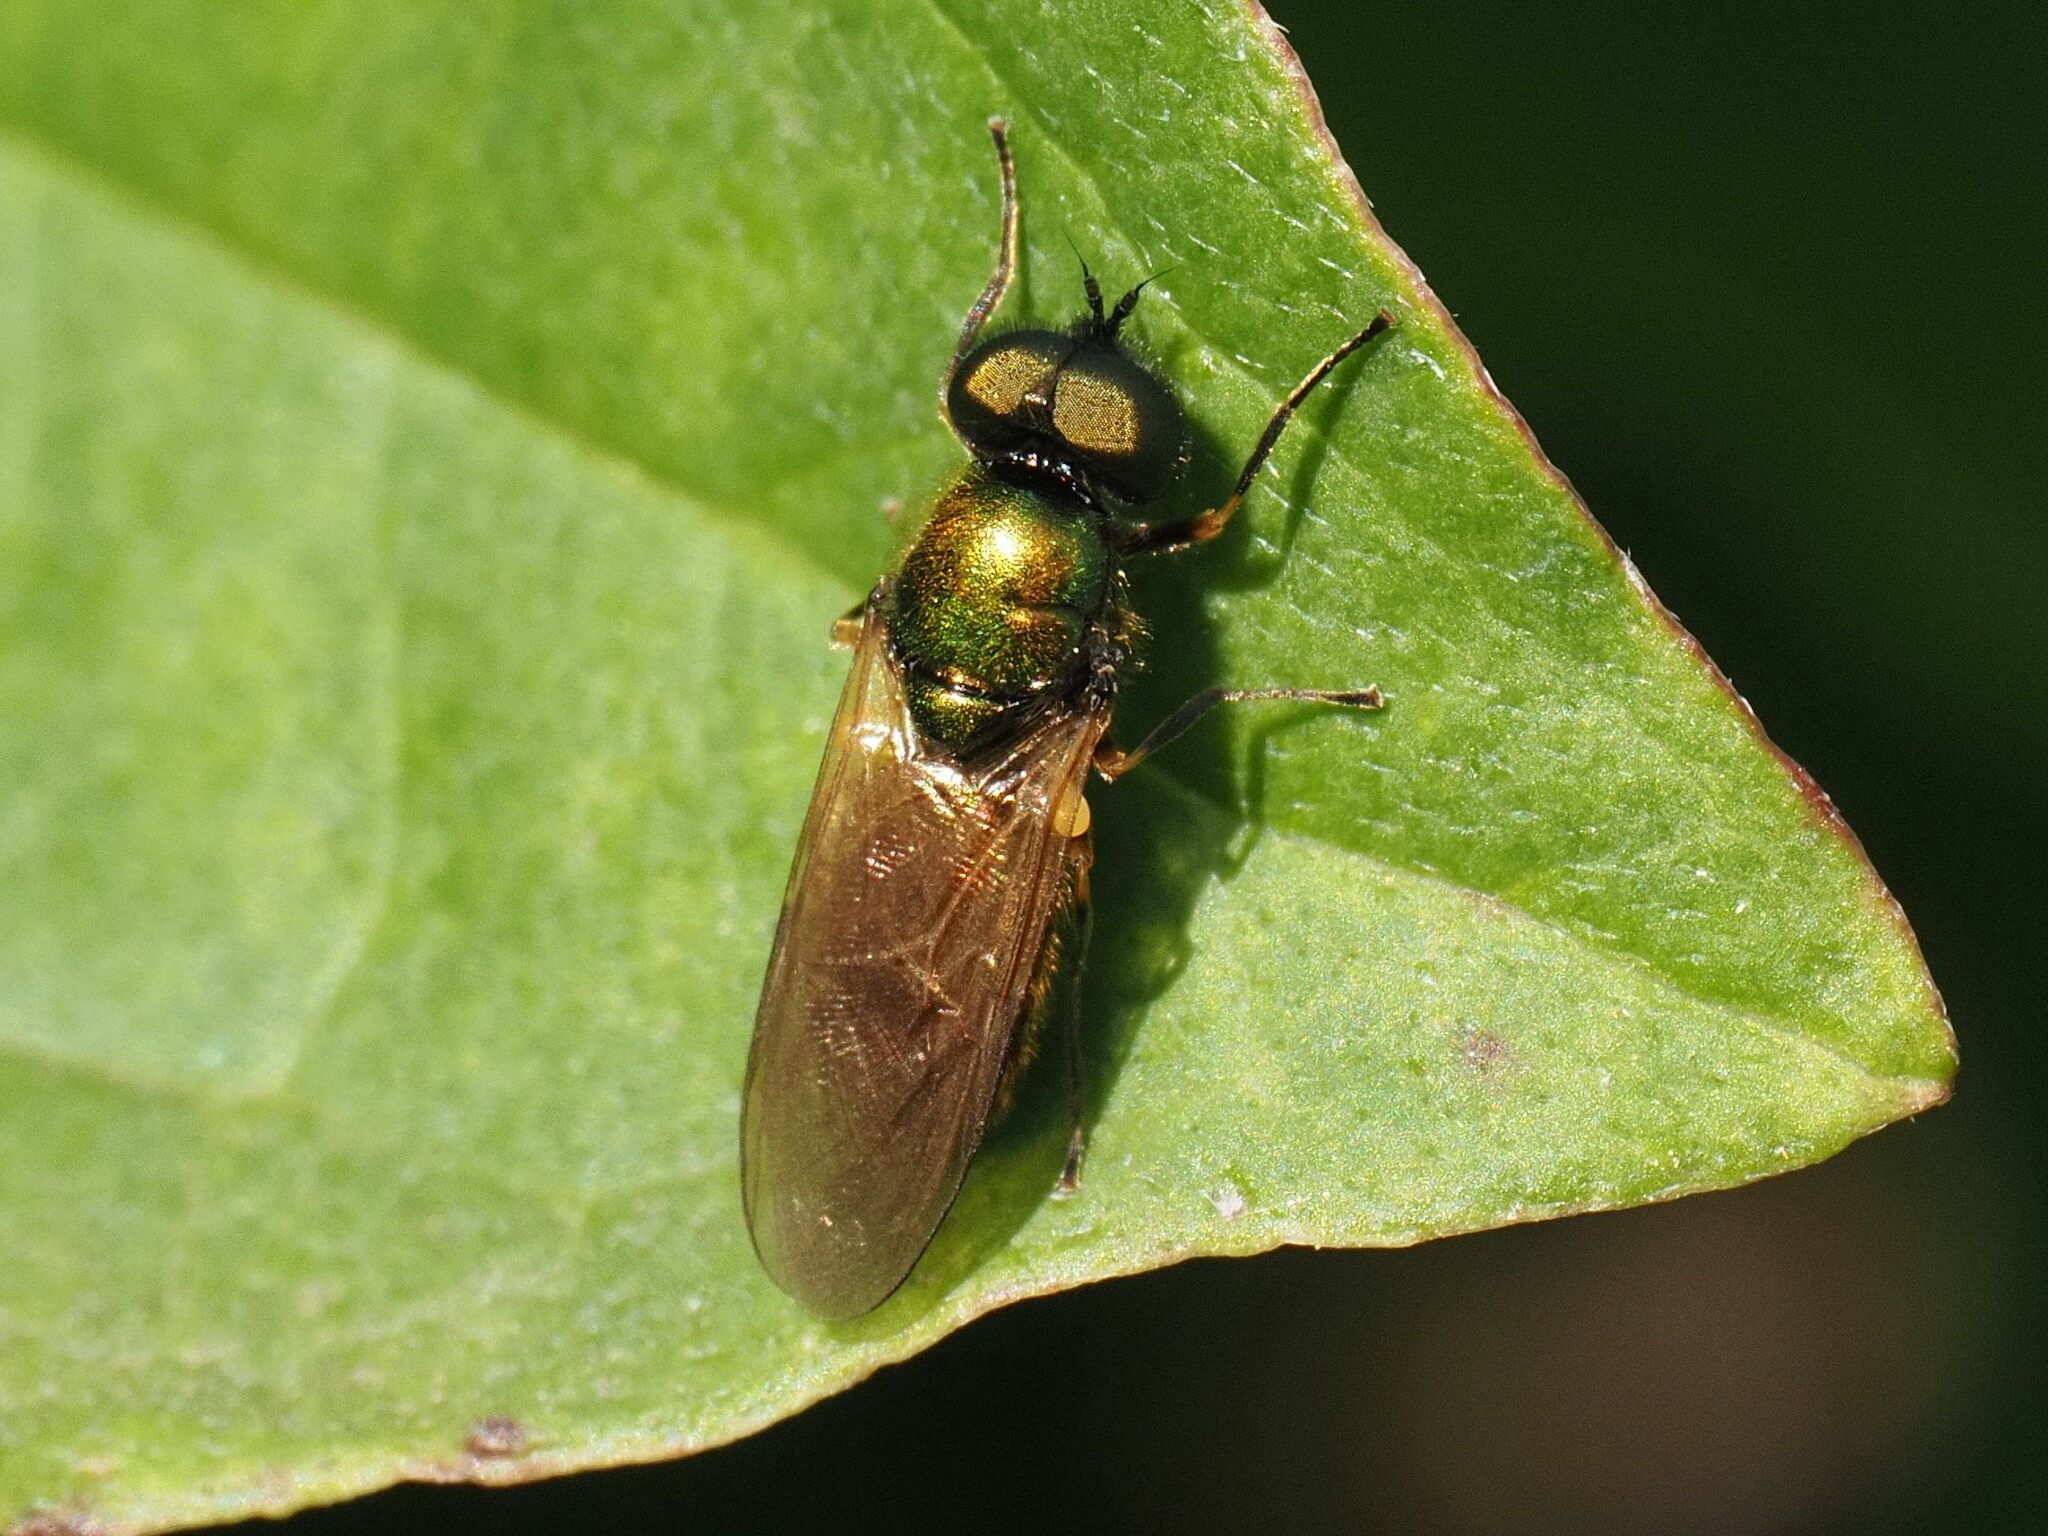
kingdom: Animalia
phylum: Arthropoda
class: Insecta
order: Diptera
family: Stratiomyidae
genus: Chloromyia
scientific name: Chloromyia formosa
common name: Soldier fly
